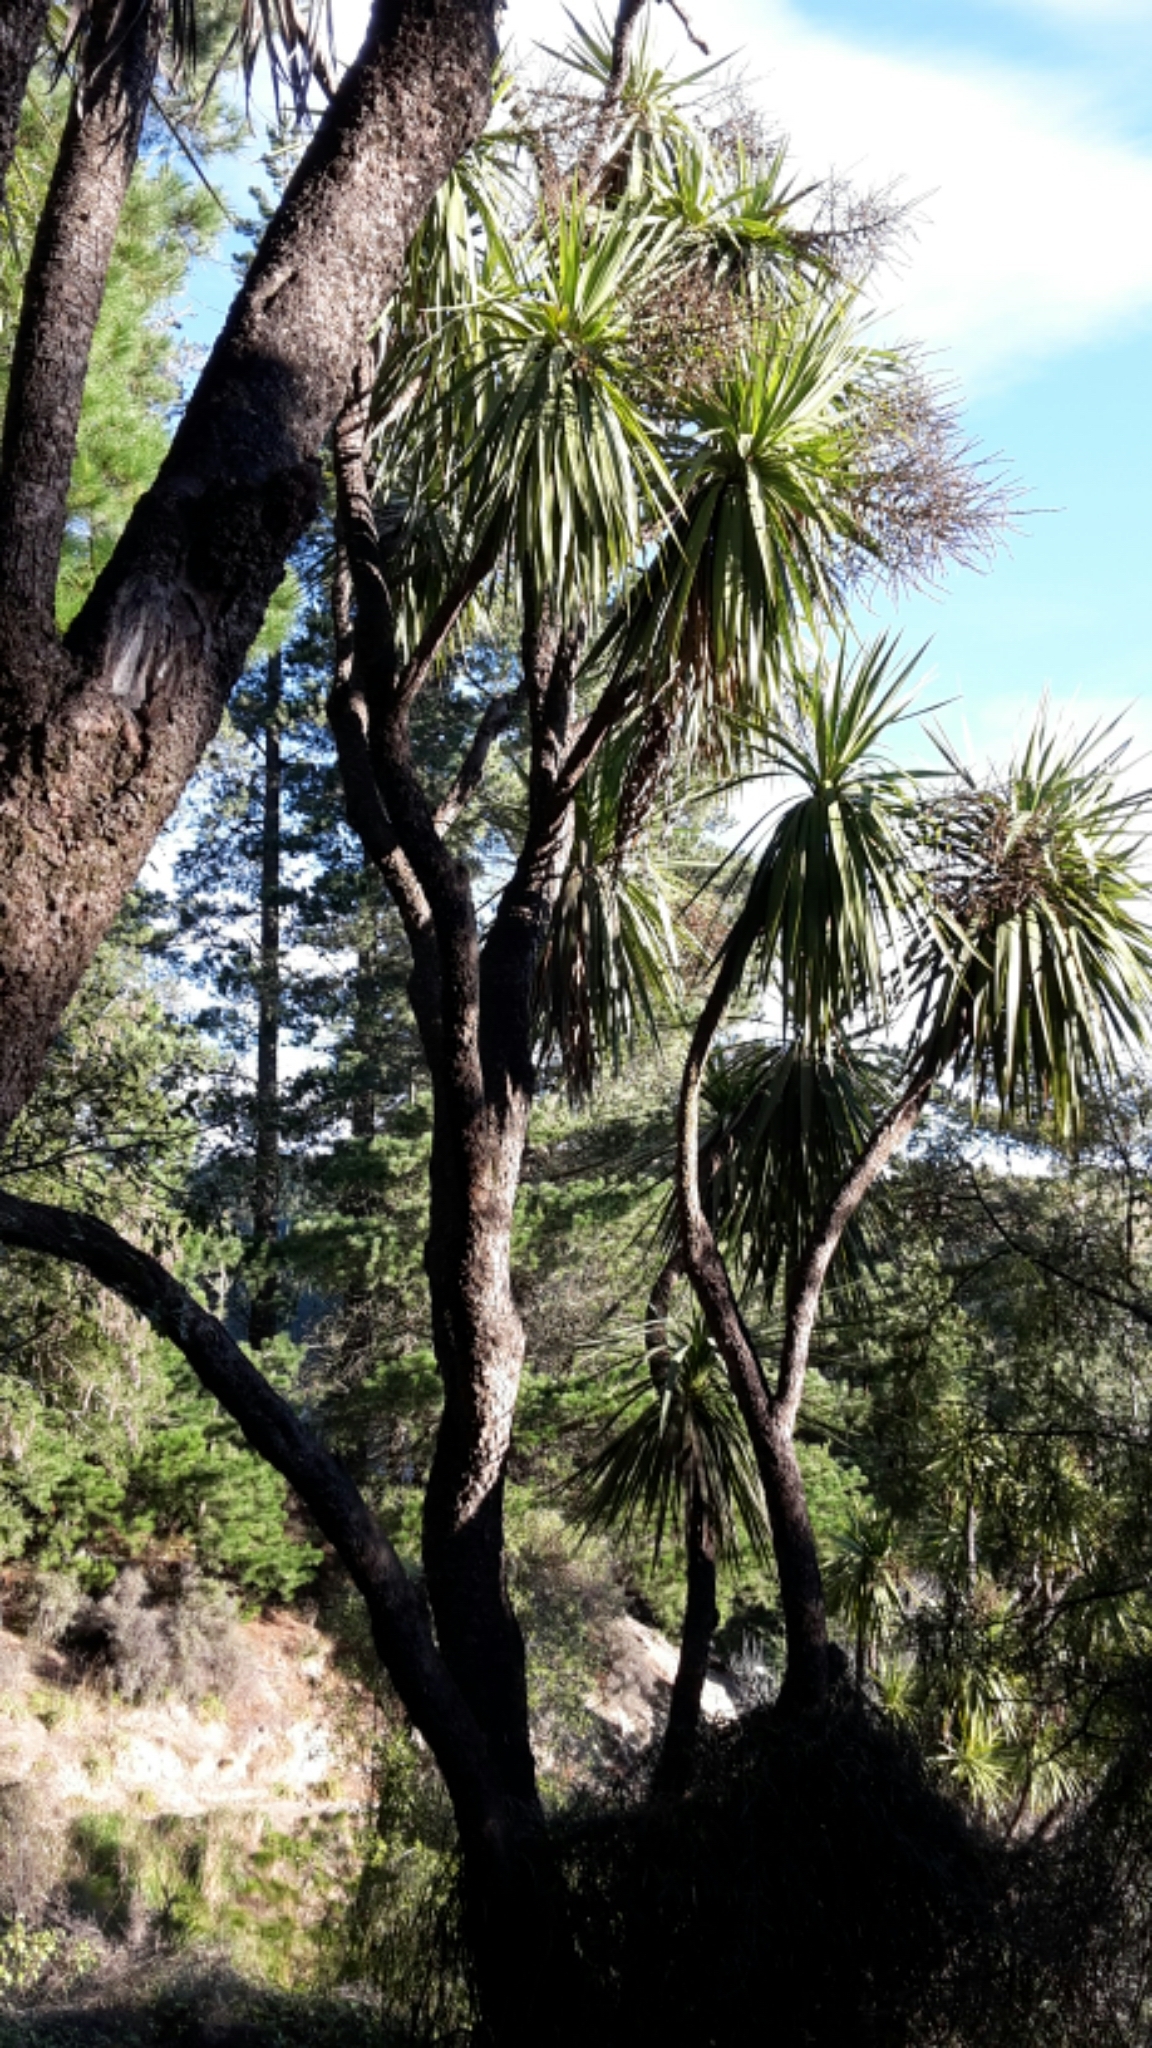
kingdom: Plantae
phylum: Tracheophyta
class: Liliopsida
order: Asparagales
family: Asparagaceae
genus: Cordyline
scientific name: Cordyline australis
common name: Cabbage-palm
